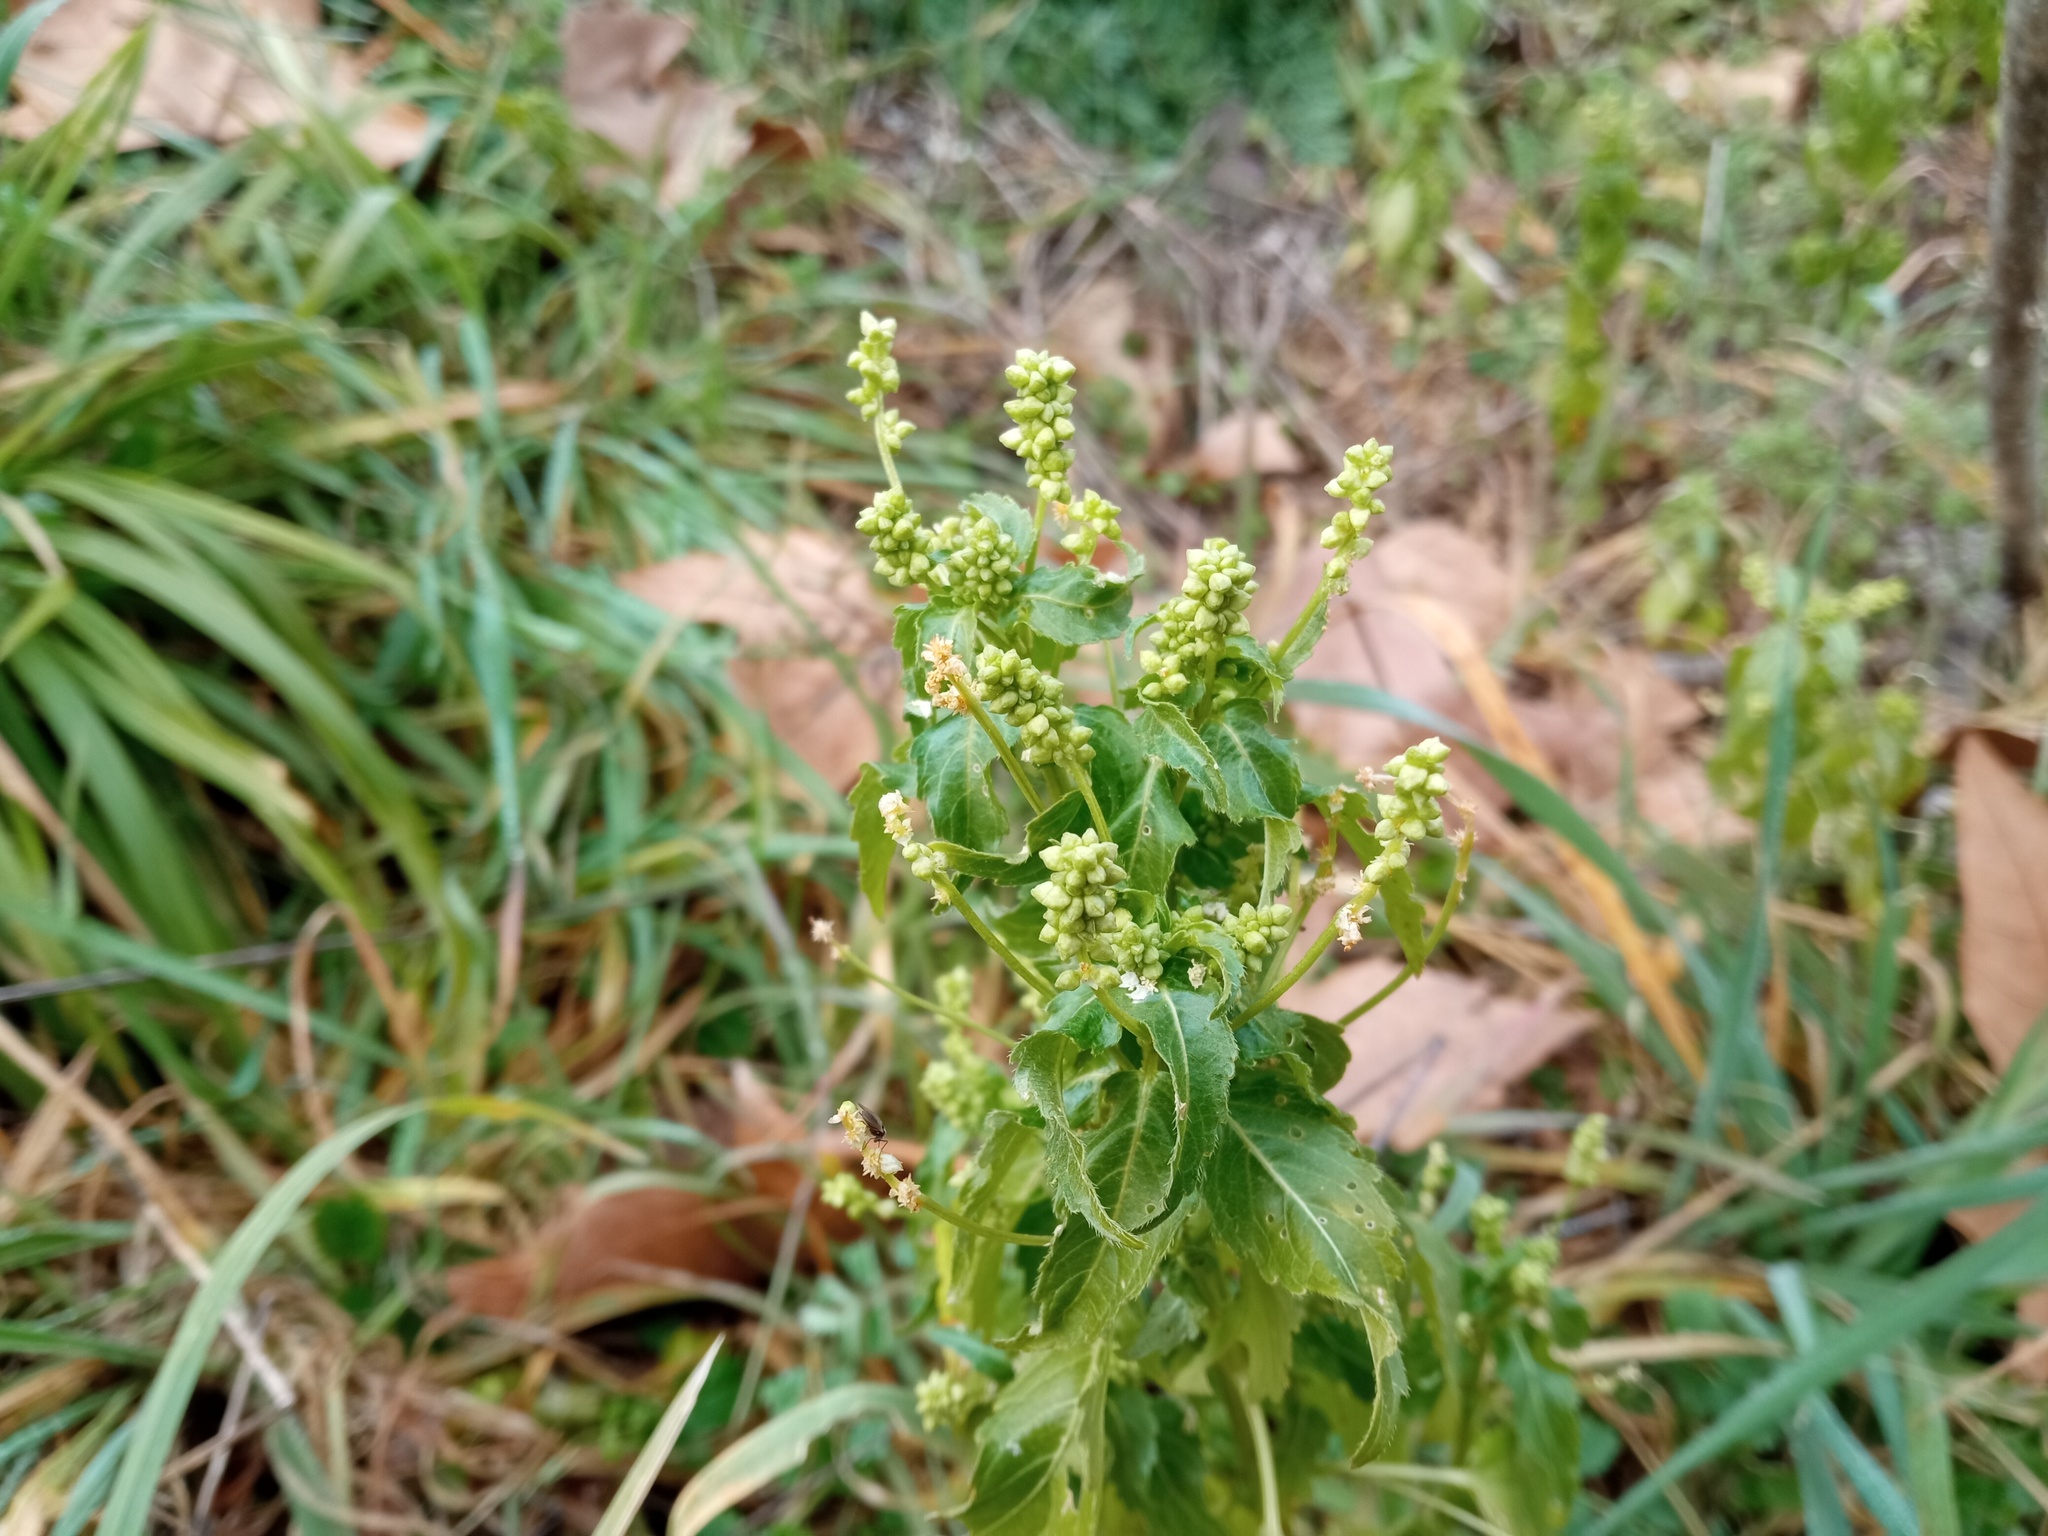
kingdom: Plantae
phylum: Tracheophyta
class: Magnoliopsida
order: Malpighiales
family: Euphorbiaceae
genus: Mercurialis
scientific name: Mercurialis annua
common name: Annual mercury
